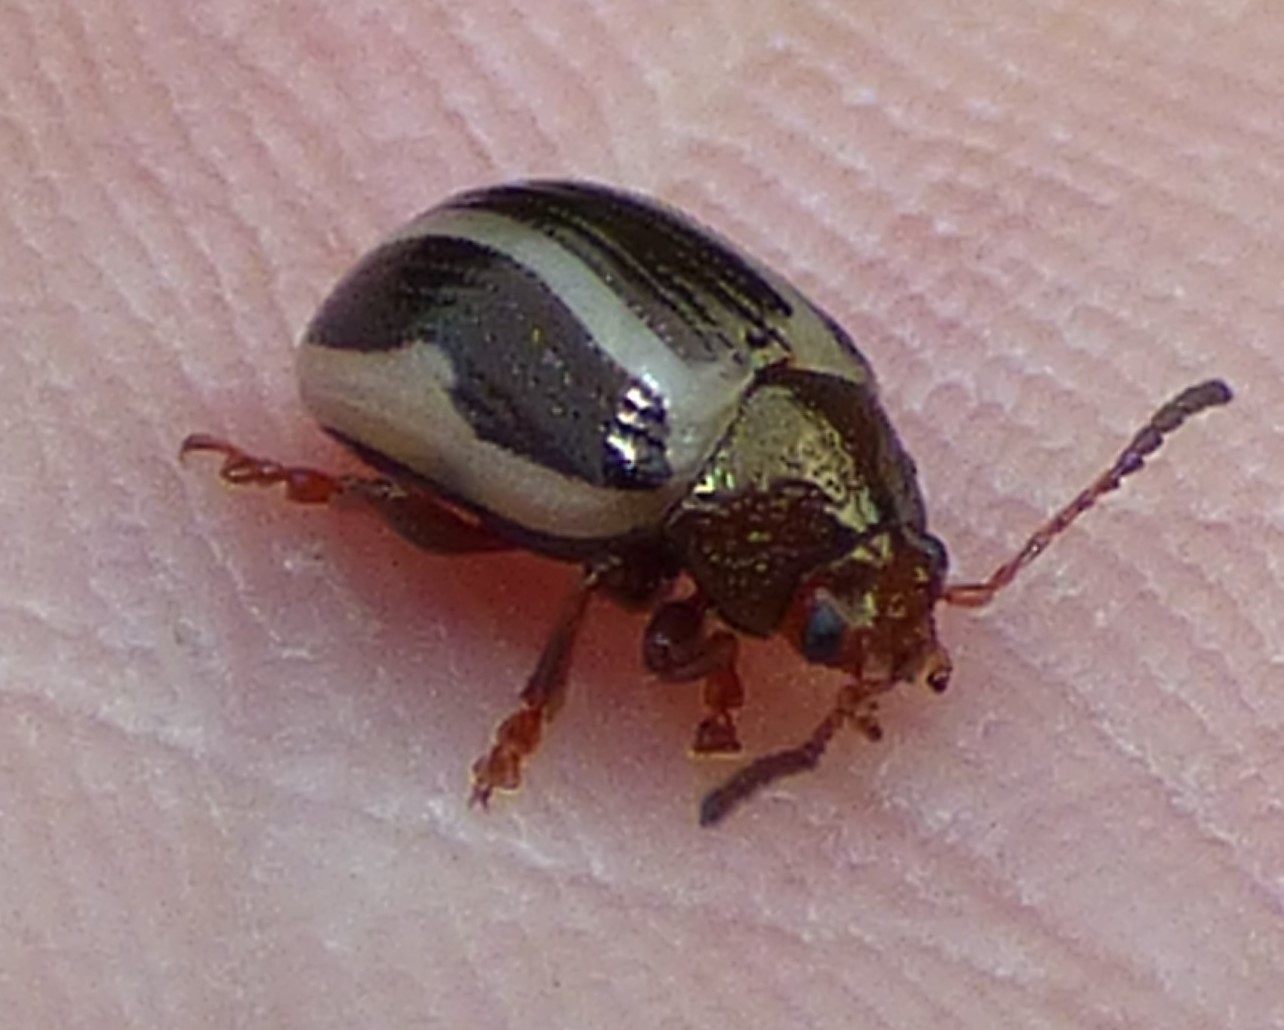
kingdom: Animalia
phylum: Arthropoda
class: Insecta
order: Coleoptera
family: Chrysomelidae
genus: Calligrapha
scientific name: Calligrapha bidenticola
